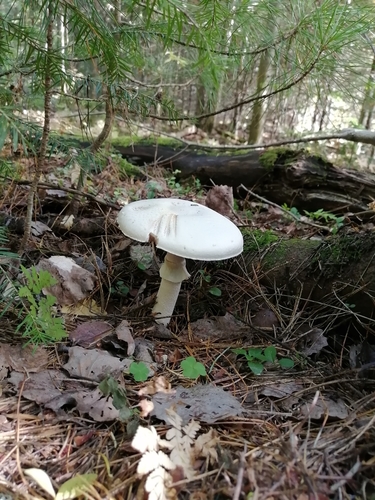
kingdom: Fungi
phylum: Basidiomycota
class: Agaricomycetes
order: Agaricales
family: Agaricaceae
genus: Agaricus
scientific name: Agaricus sylvicola
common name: Wood mushroom
